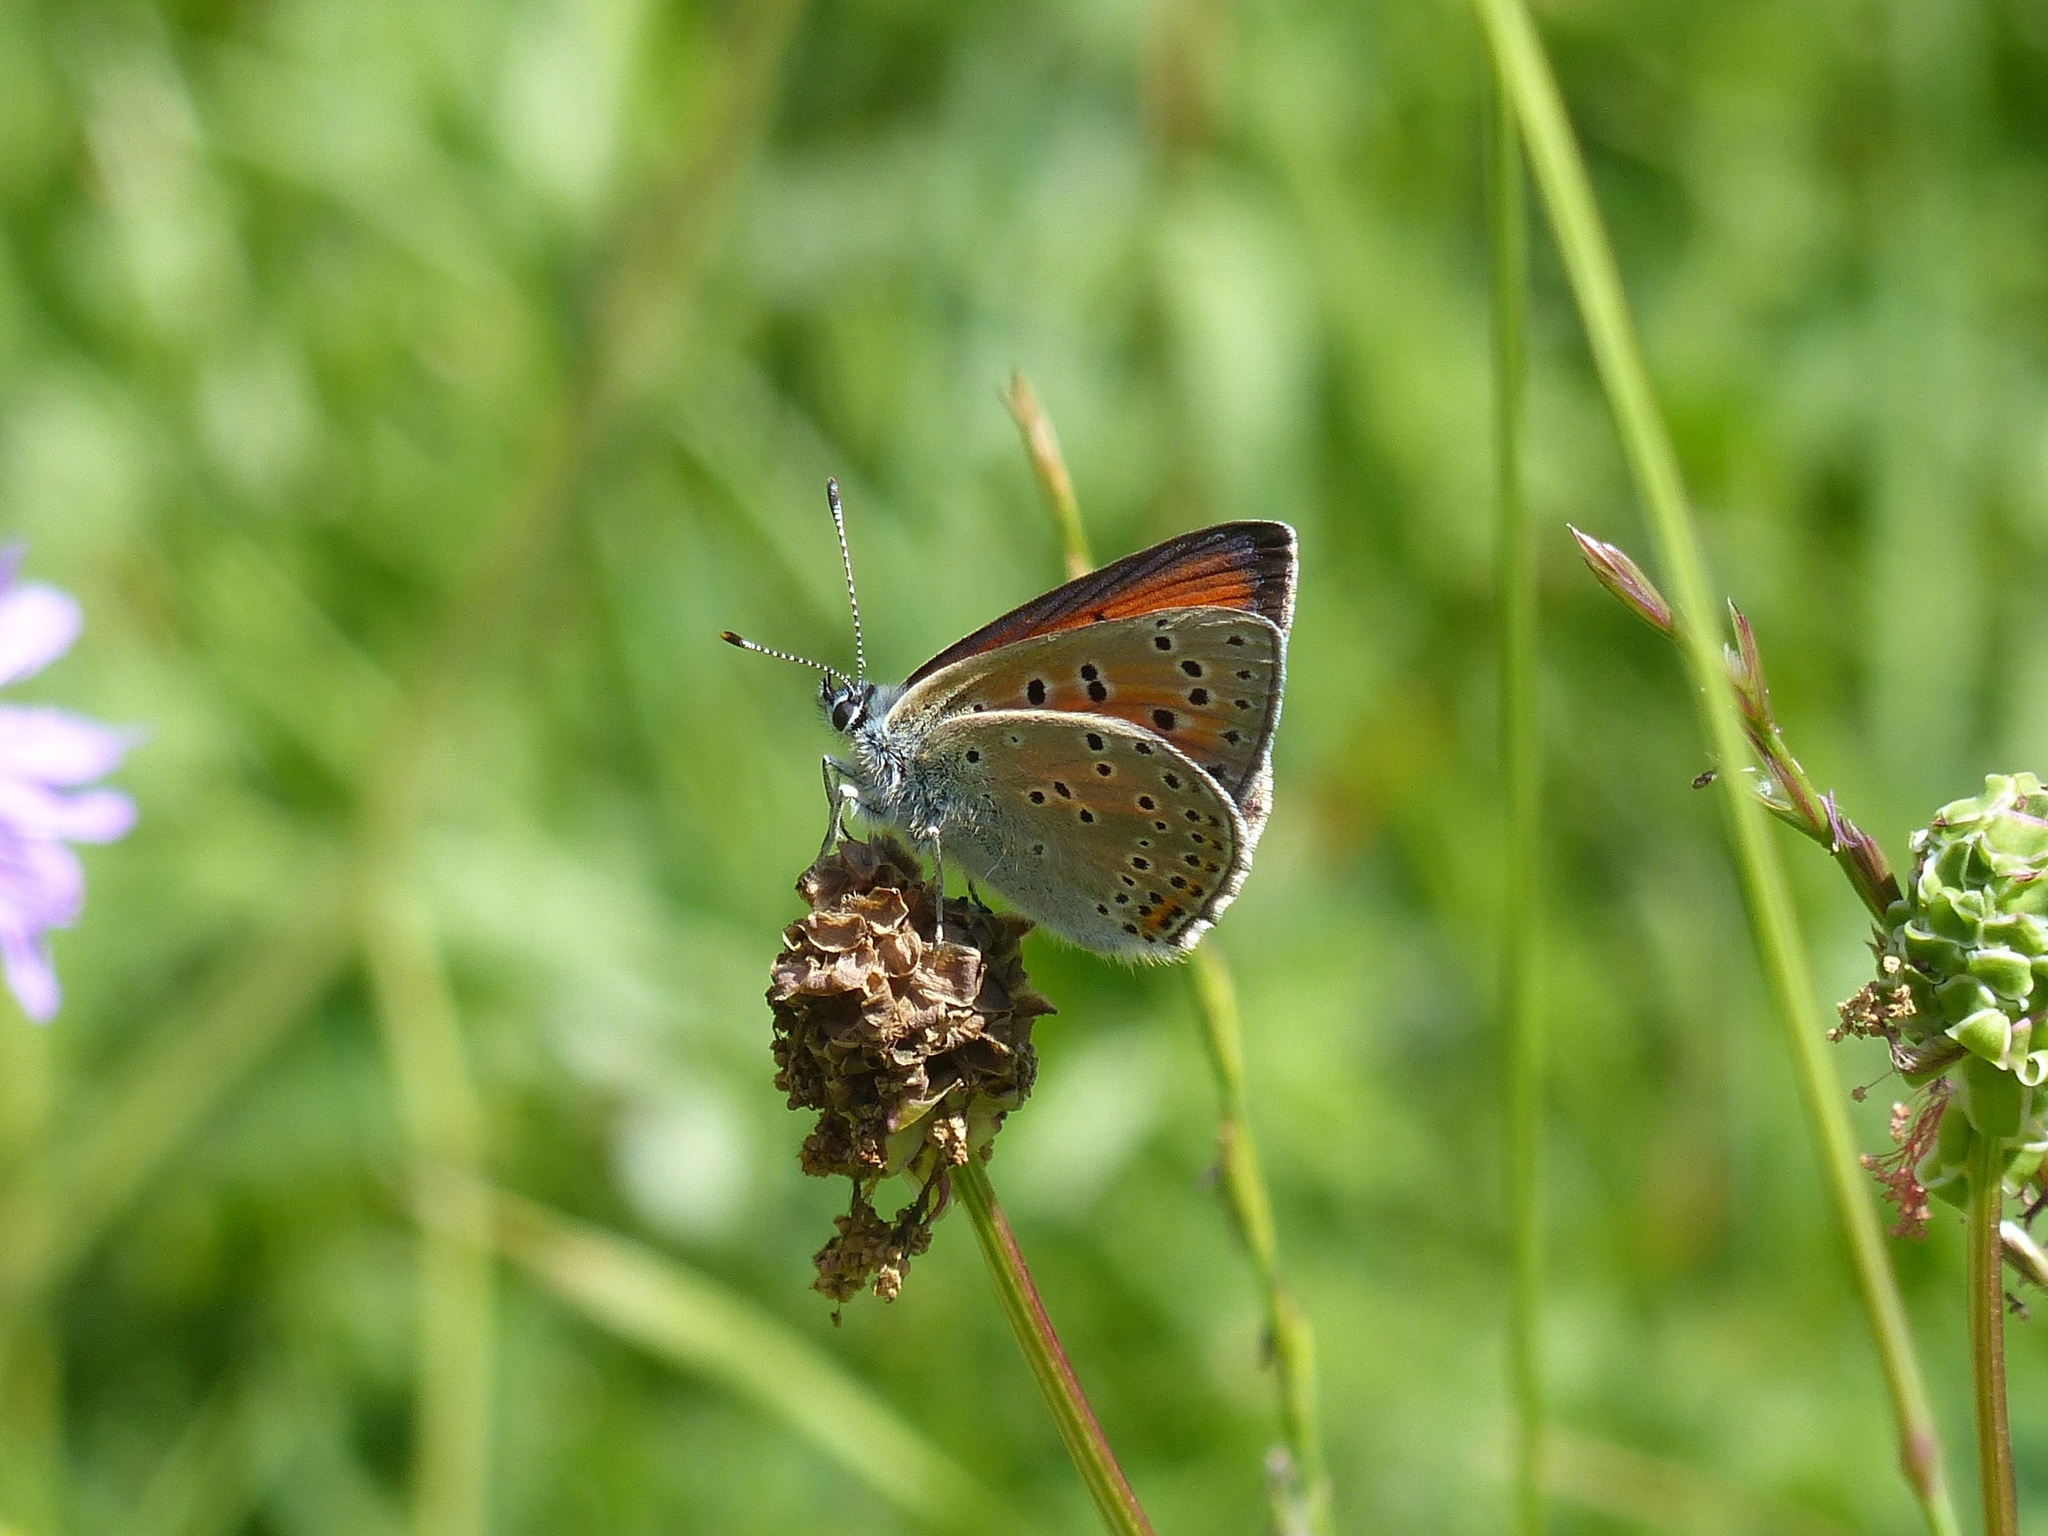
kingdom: Animalia
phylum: Arthropoda
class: Insecta
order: Lepidoptera
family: Lycaenidae
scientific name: Lycaenidae
